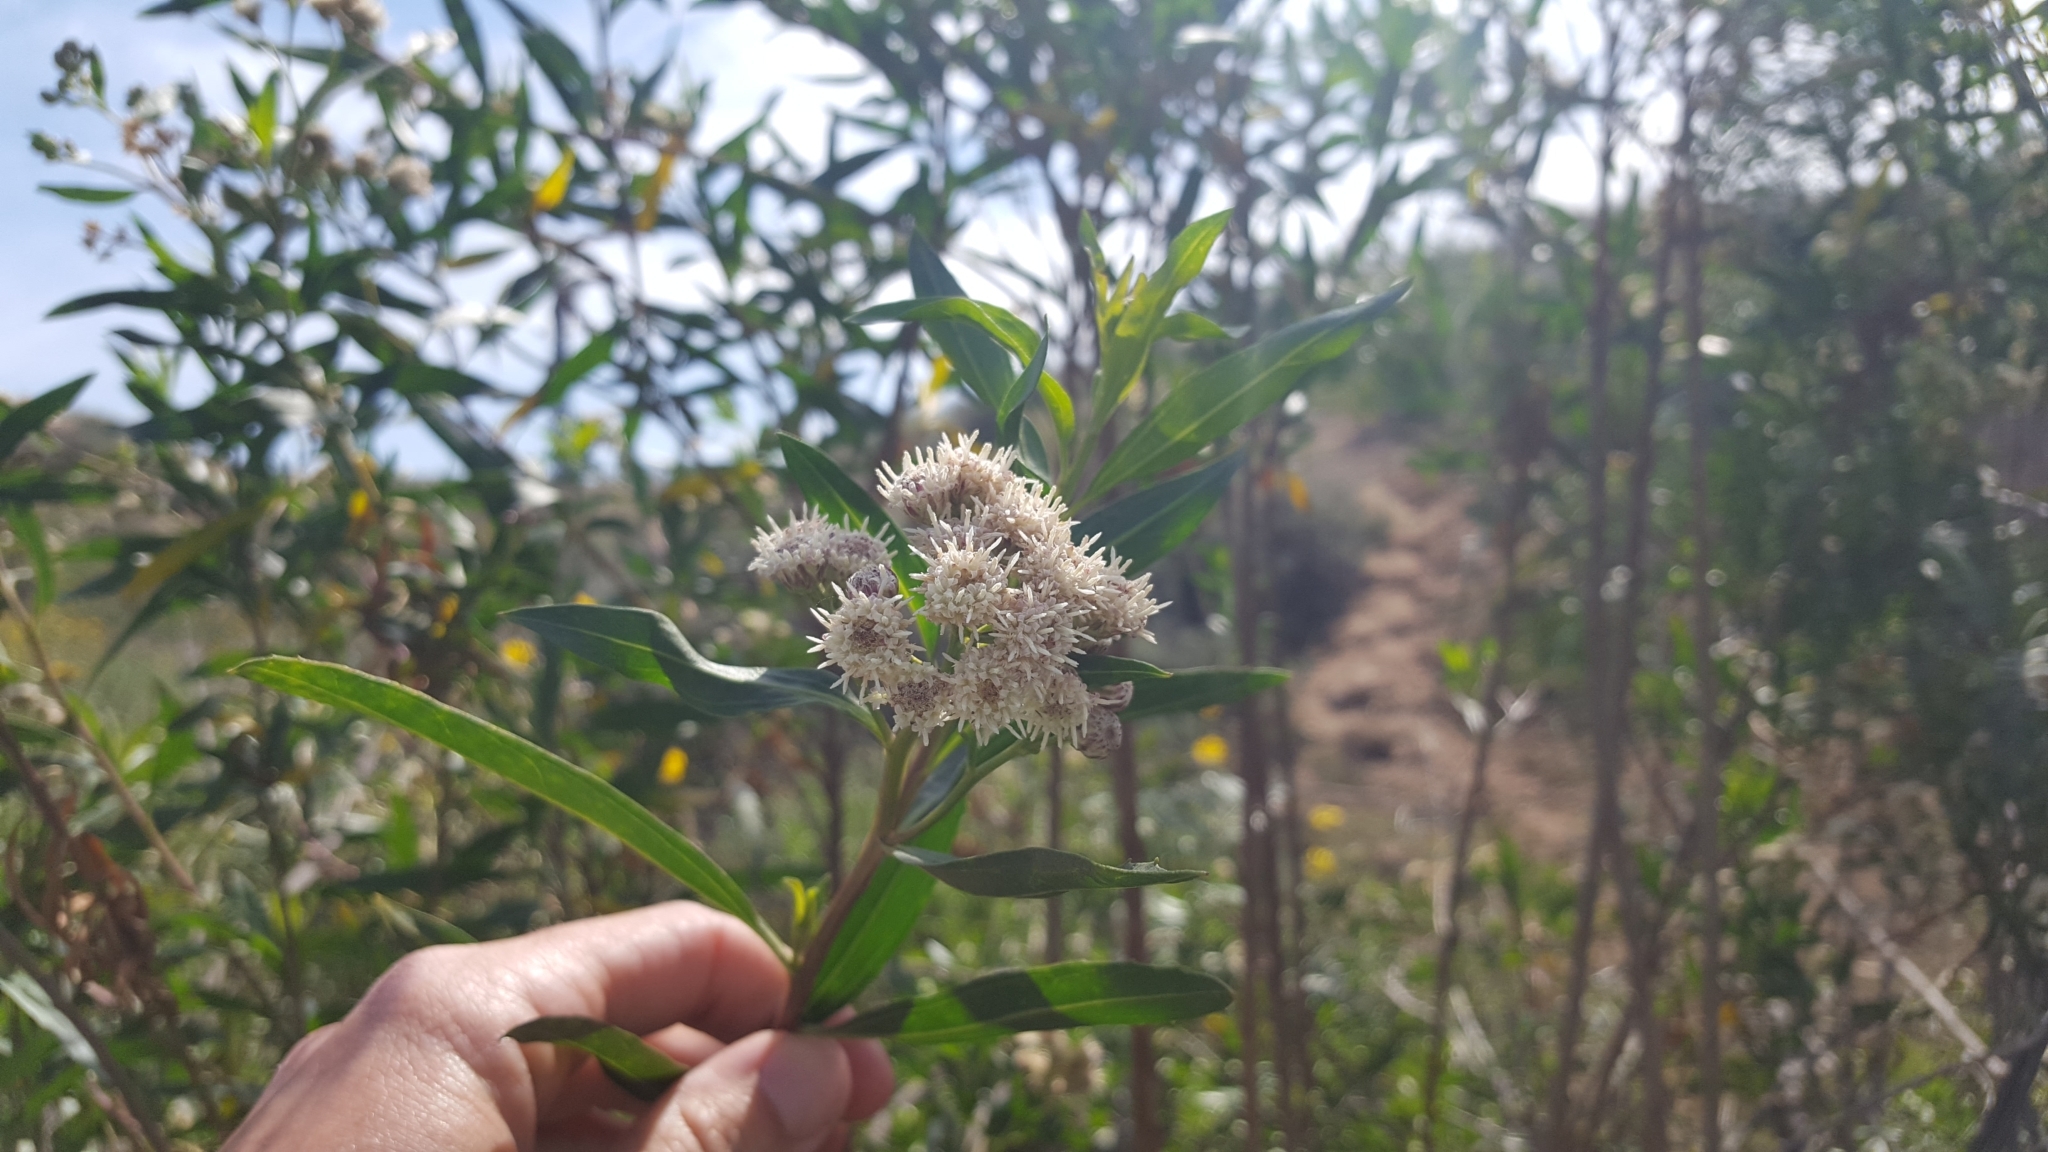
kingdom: Plantae
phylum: Tracheophyta
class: Magnoliopsida
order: Asterales
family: Asteraceae
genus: Baccharis
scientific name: Baccharis salicifolia
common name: Sticky baccharis
